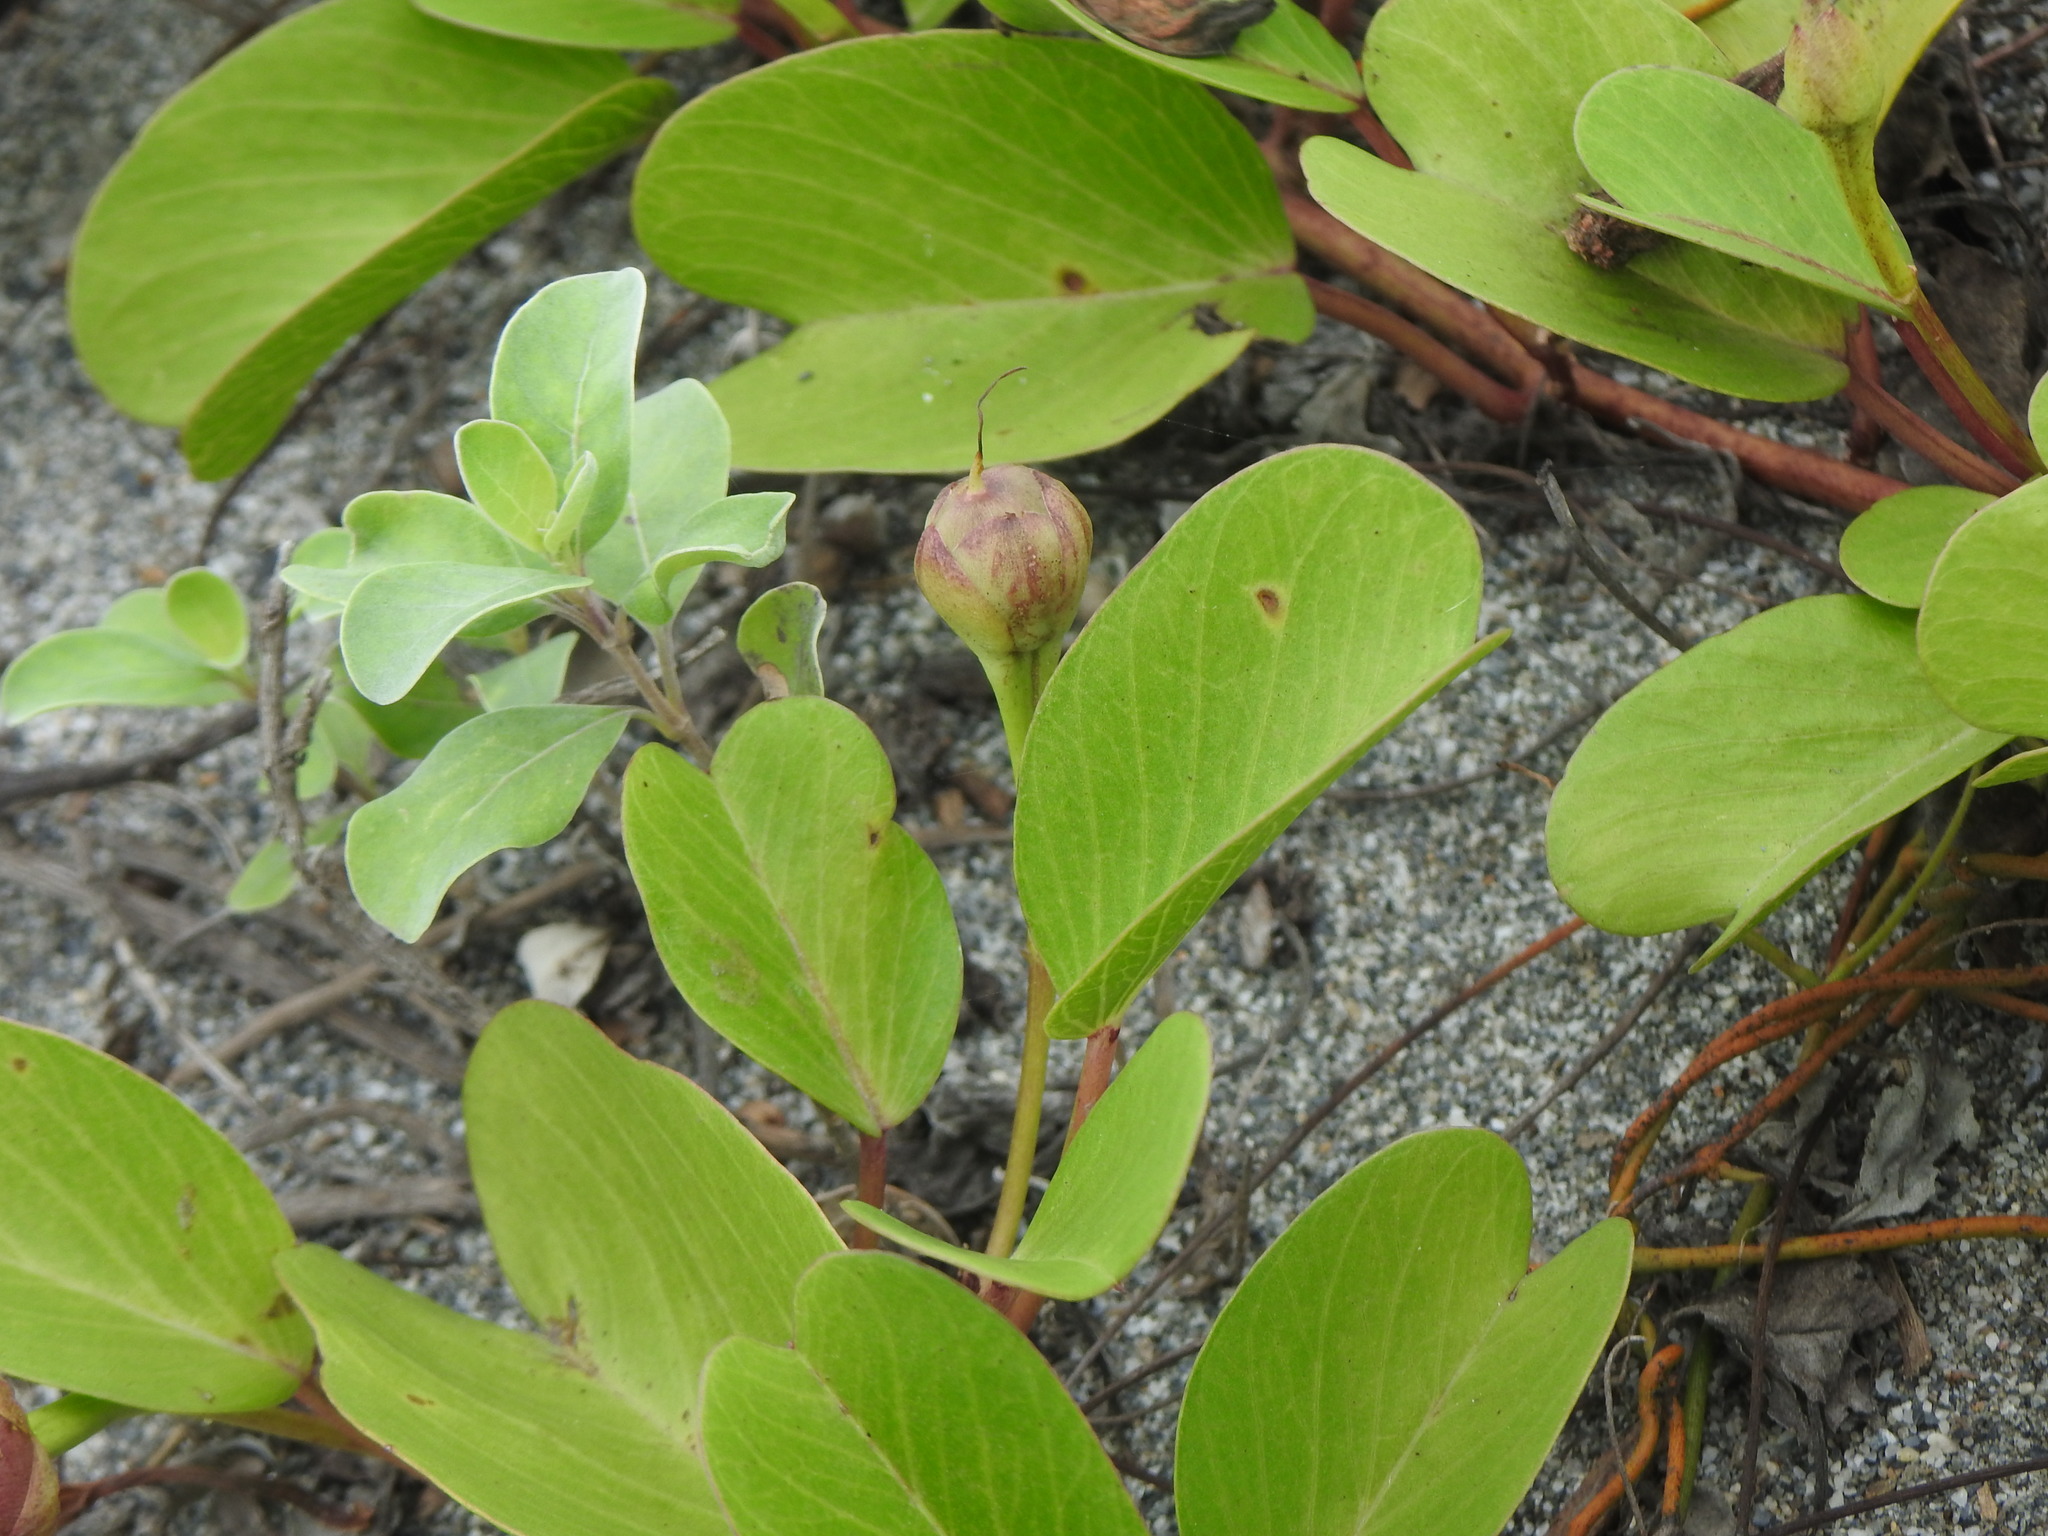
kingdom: Plantae
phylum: Tracheophyta
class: Magnoliopsida
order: Solanales
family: Convolvulaceae
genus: Ipomoea
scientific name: Ipomoea pes-caprae
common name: Beach morning glory
